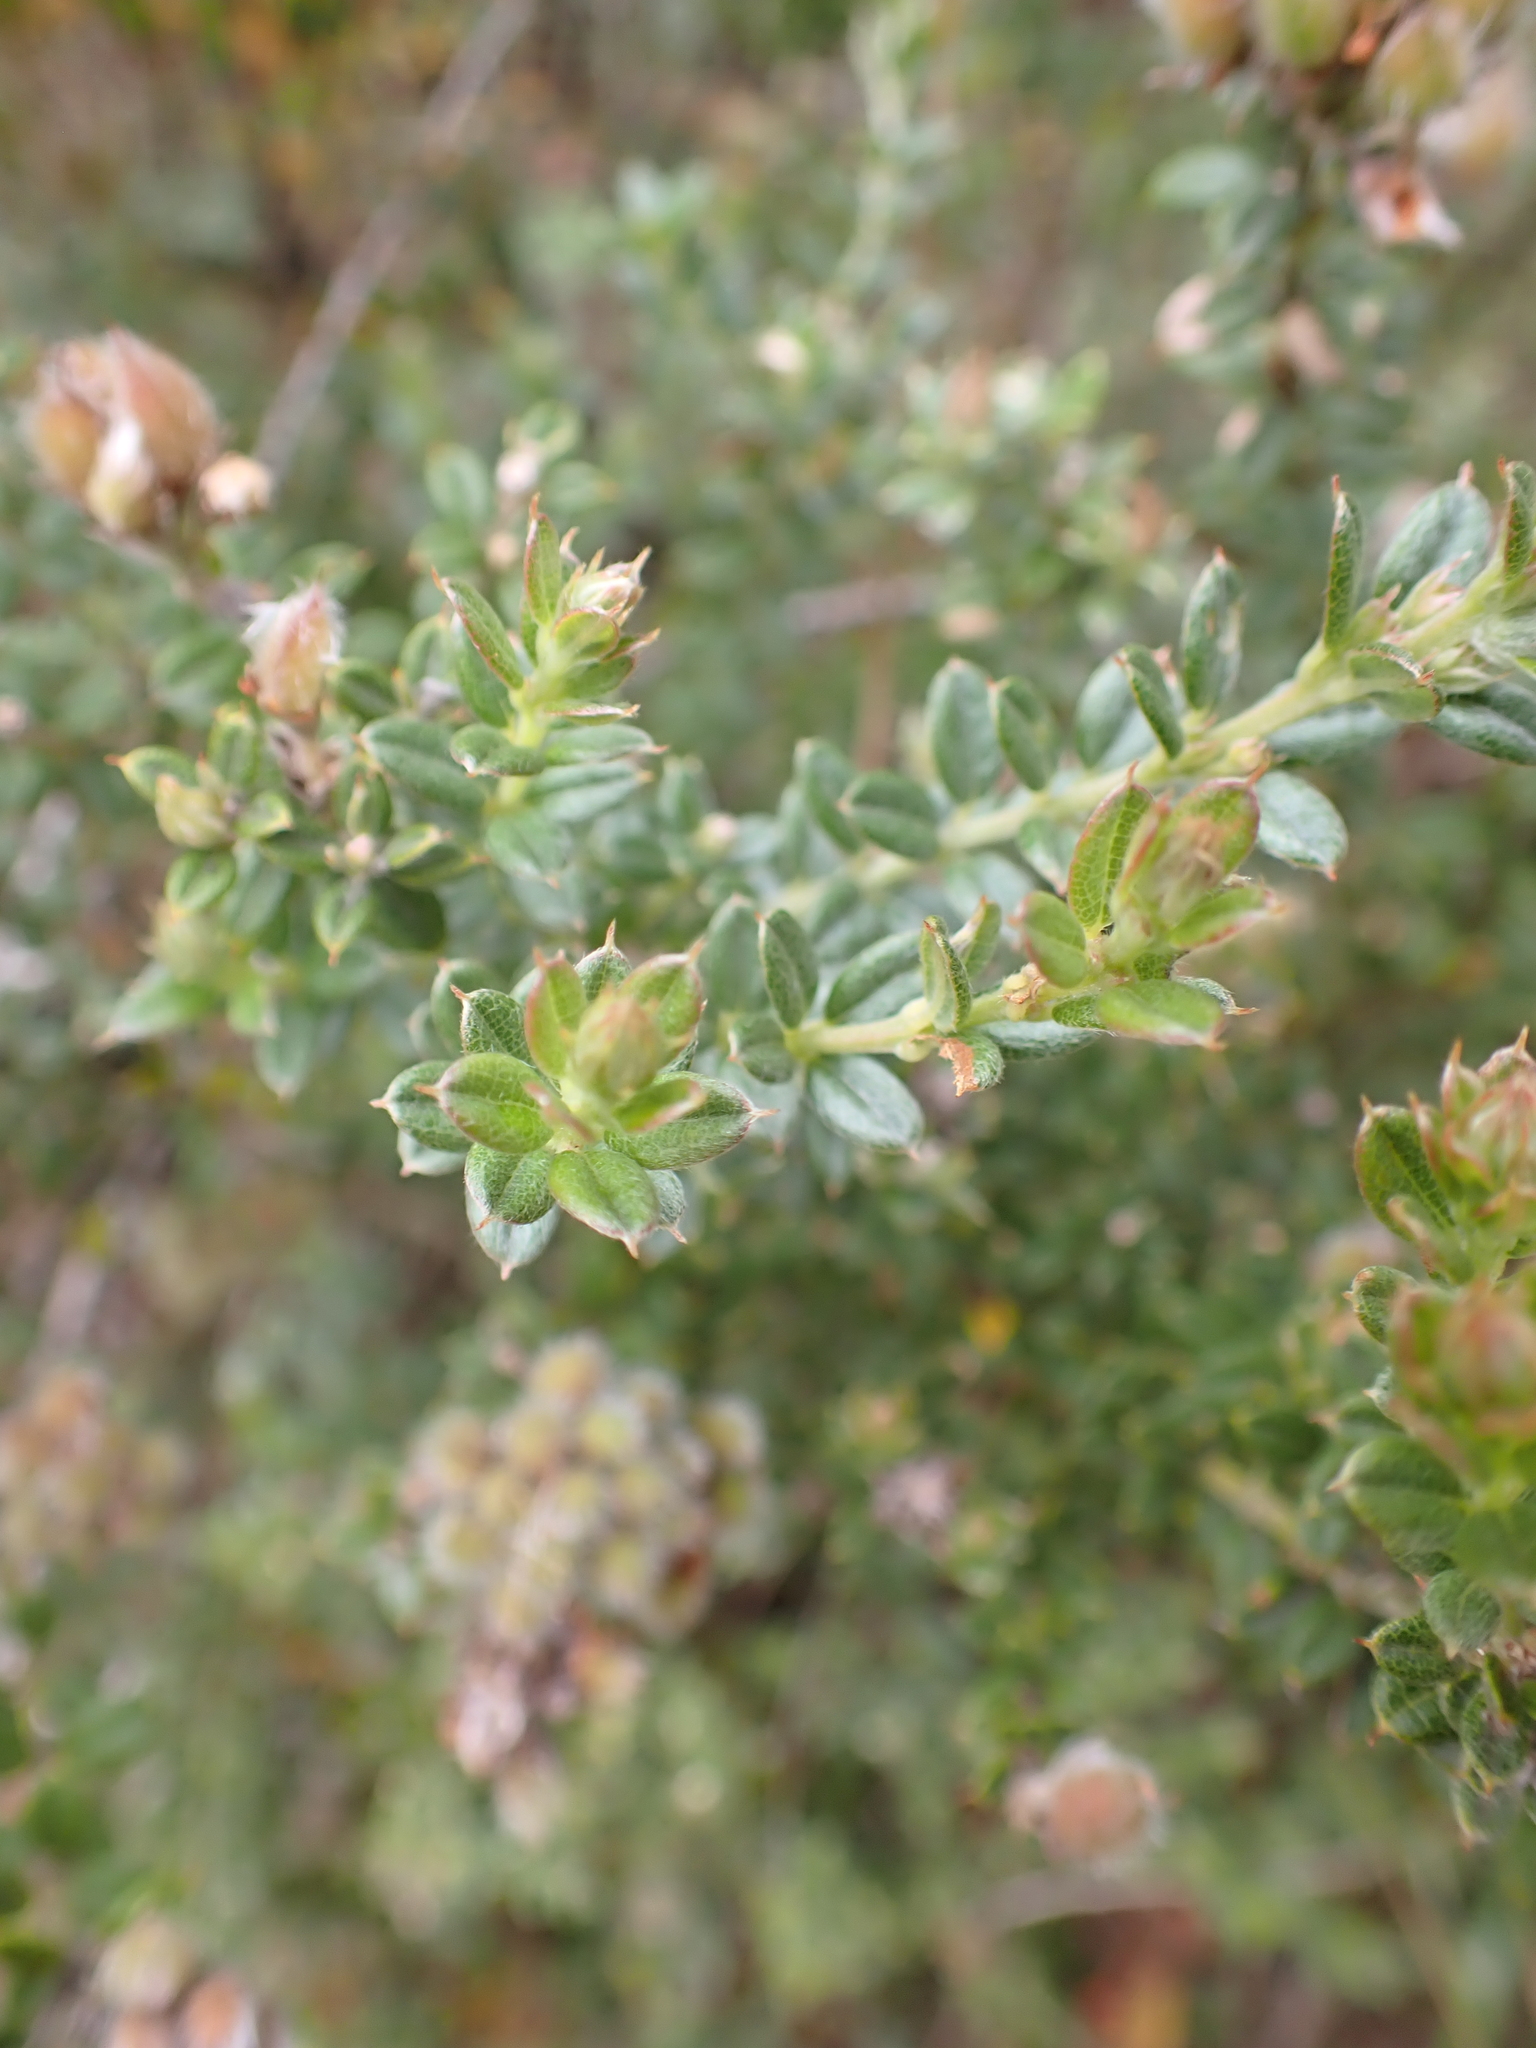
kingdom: Plantae
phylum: Tracheophyta
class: Magnoliopsida
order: Fabales
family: Fabaceae
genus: Oxylobium
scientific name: Oxylobium oxylobioides
